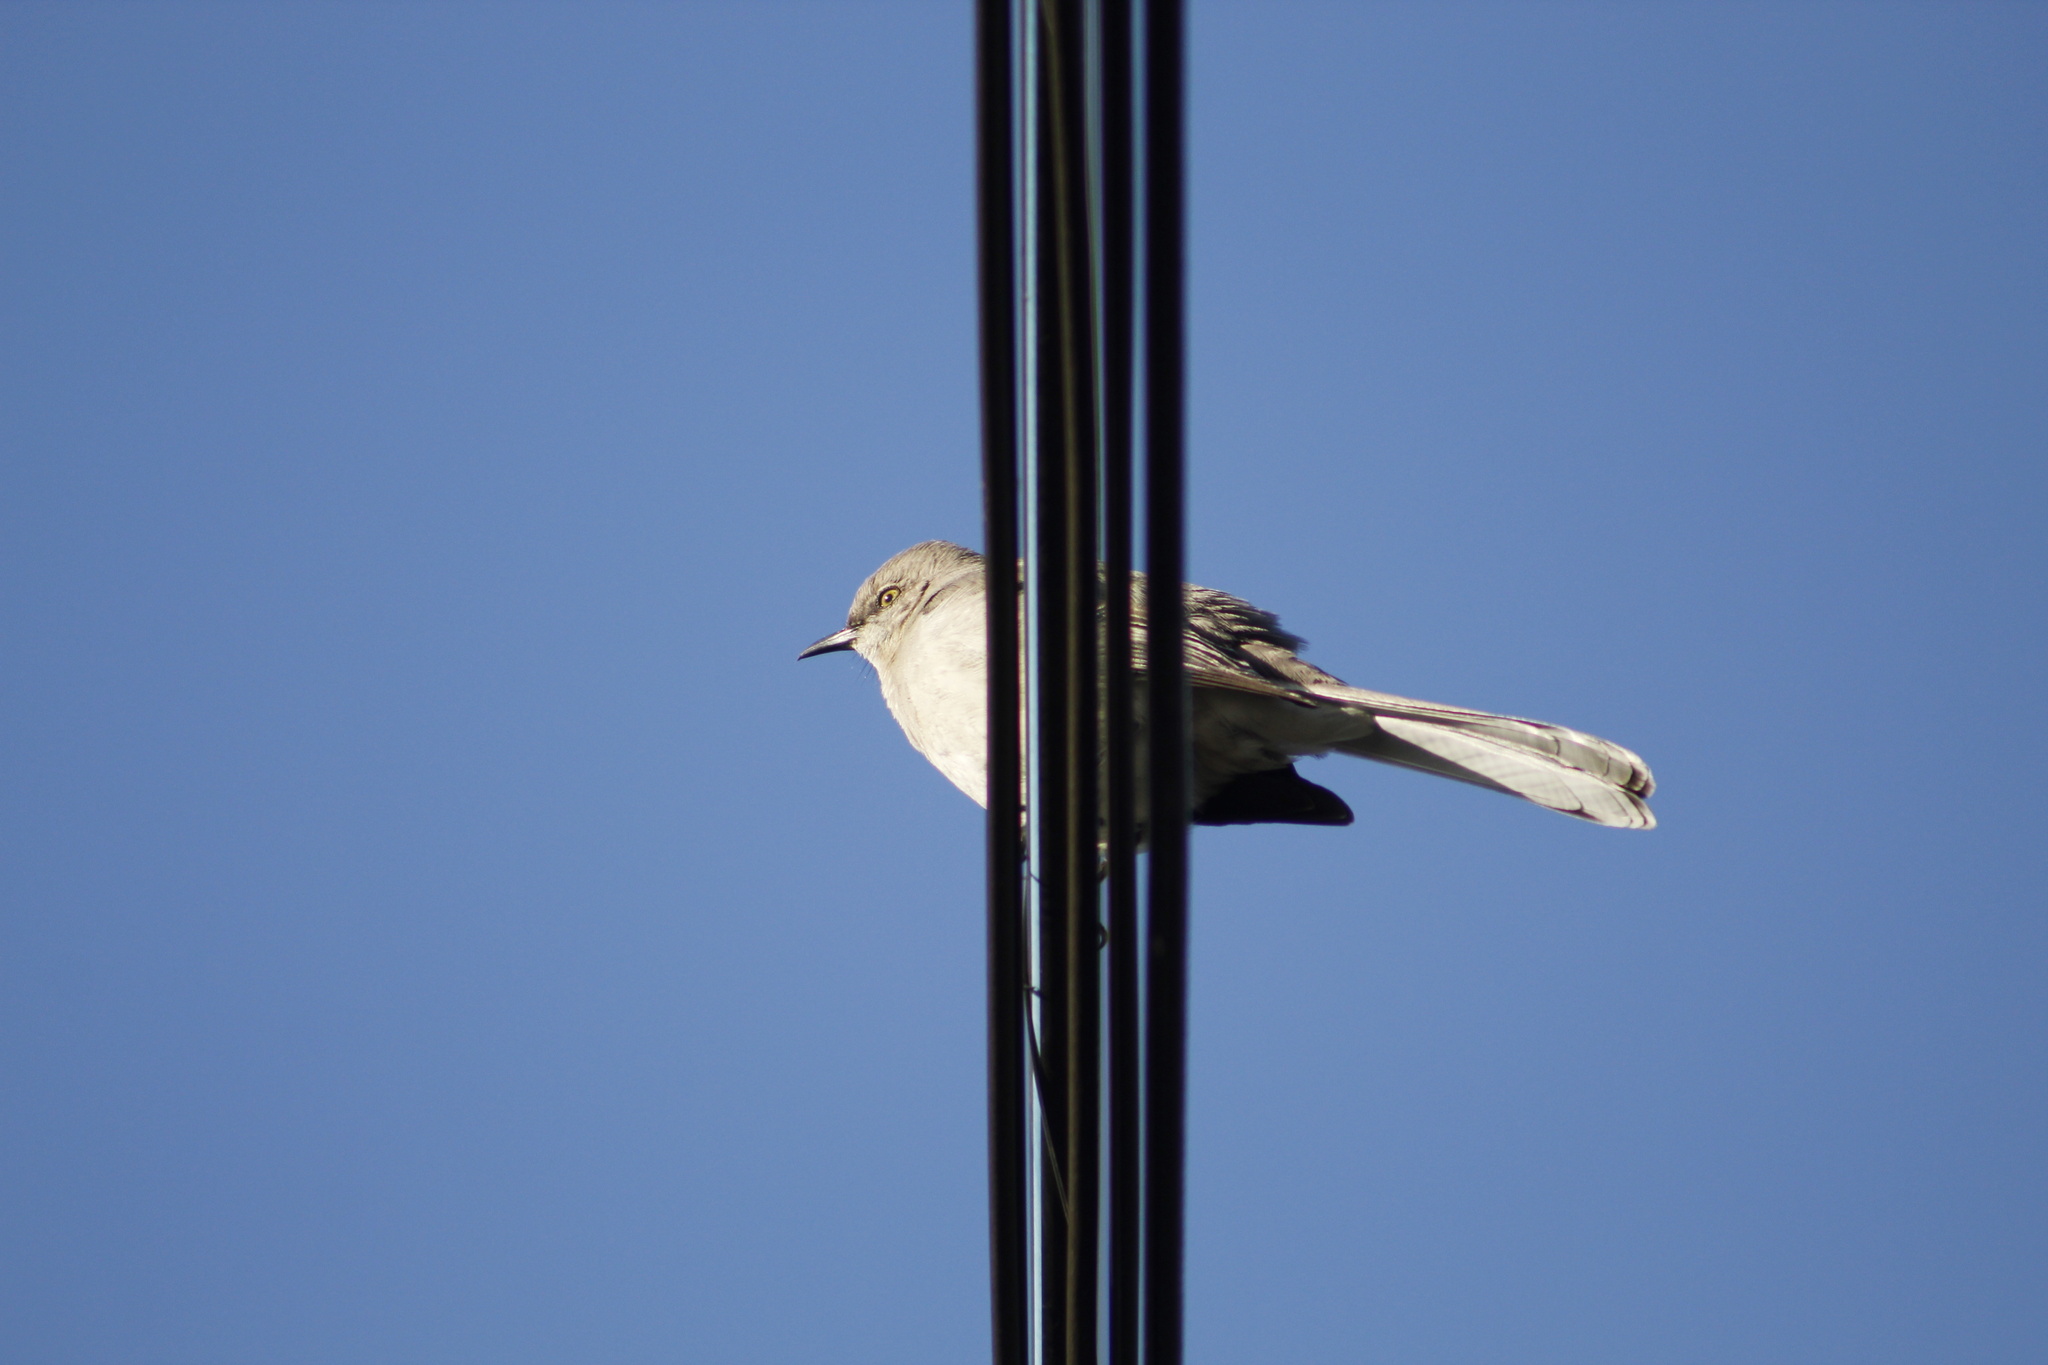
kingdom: Animalia
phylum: Chordata
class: Aves
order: Passeriformes
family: Mimidae
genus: Mimus
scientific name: Mimus polyglottos
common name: Northern mockingbird
